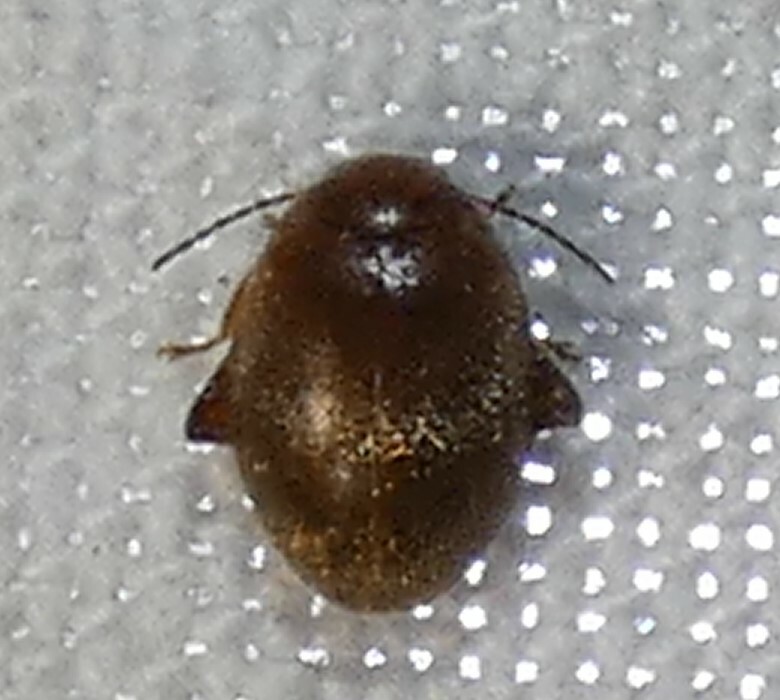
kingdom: Animalia
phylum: Arthropoda
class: Insecta
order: Coleoptera
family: Scirtidae
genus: Scirtes
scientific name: Scirtes tibialis
